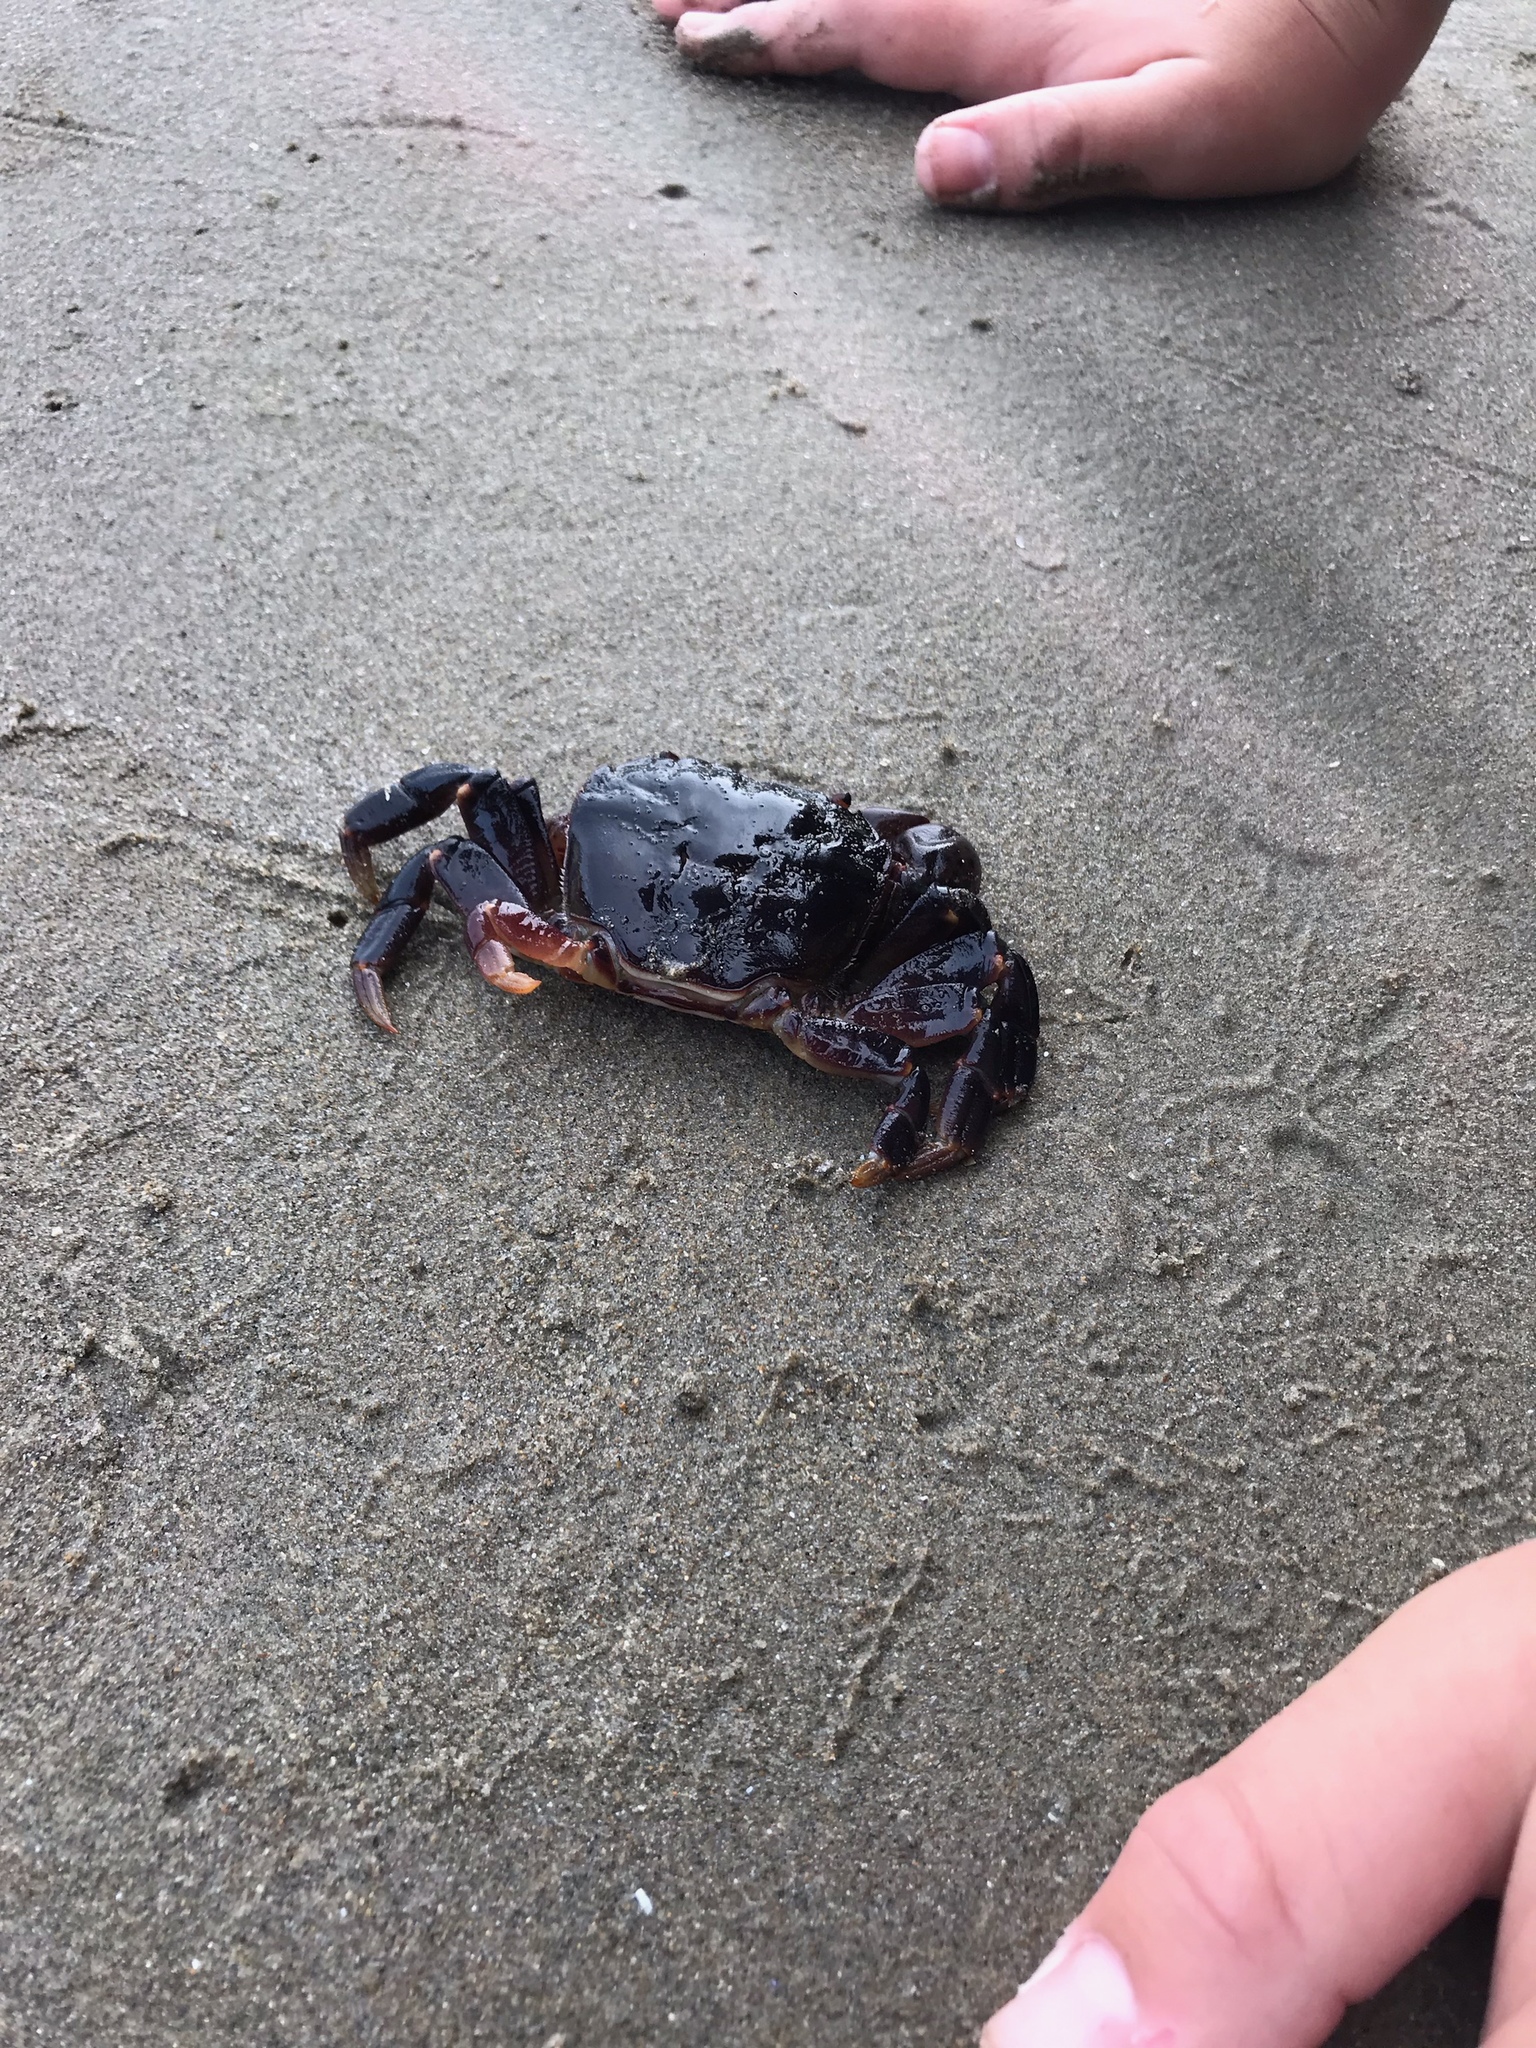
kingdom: Animalia
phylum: Arthropoda
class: Malacostraca
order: Decapoda
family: Varunidae
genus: Hemigrapsus
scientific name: Hemigrapsus nudus
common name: Purple shore crab
